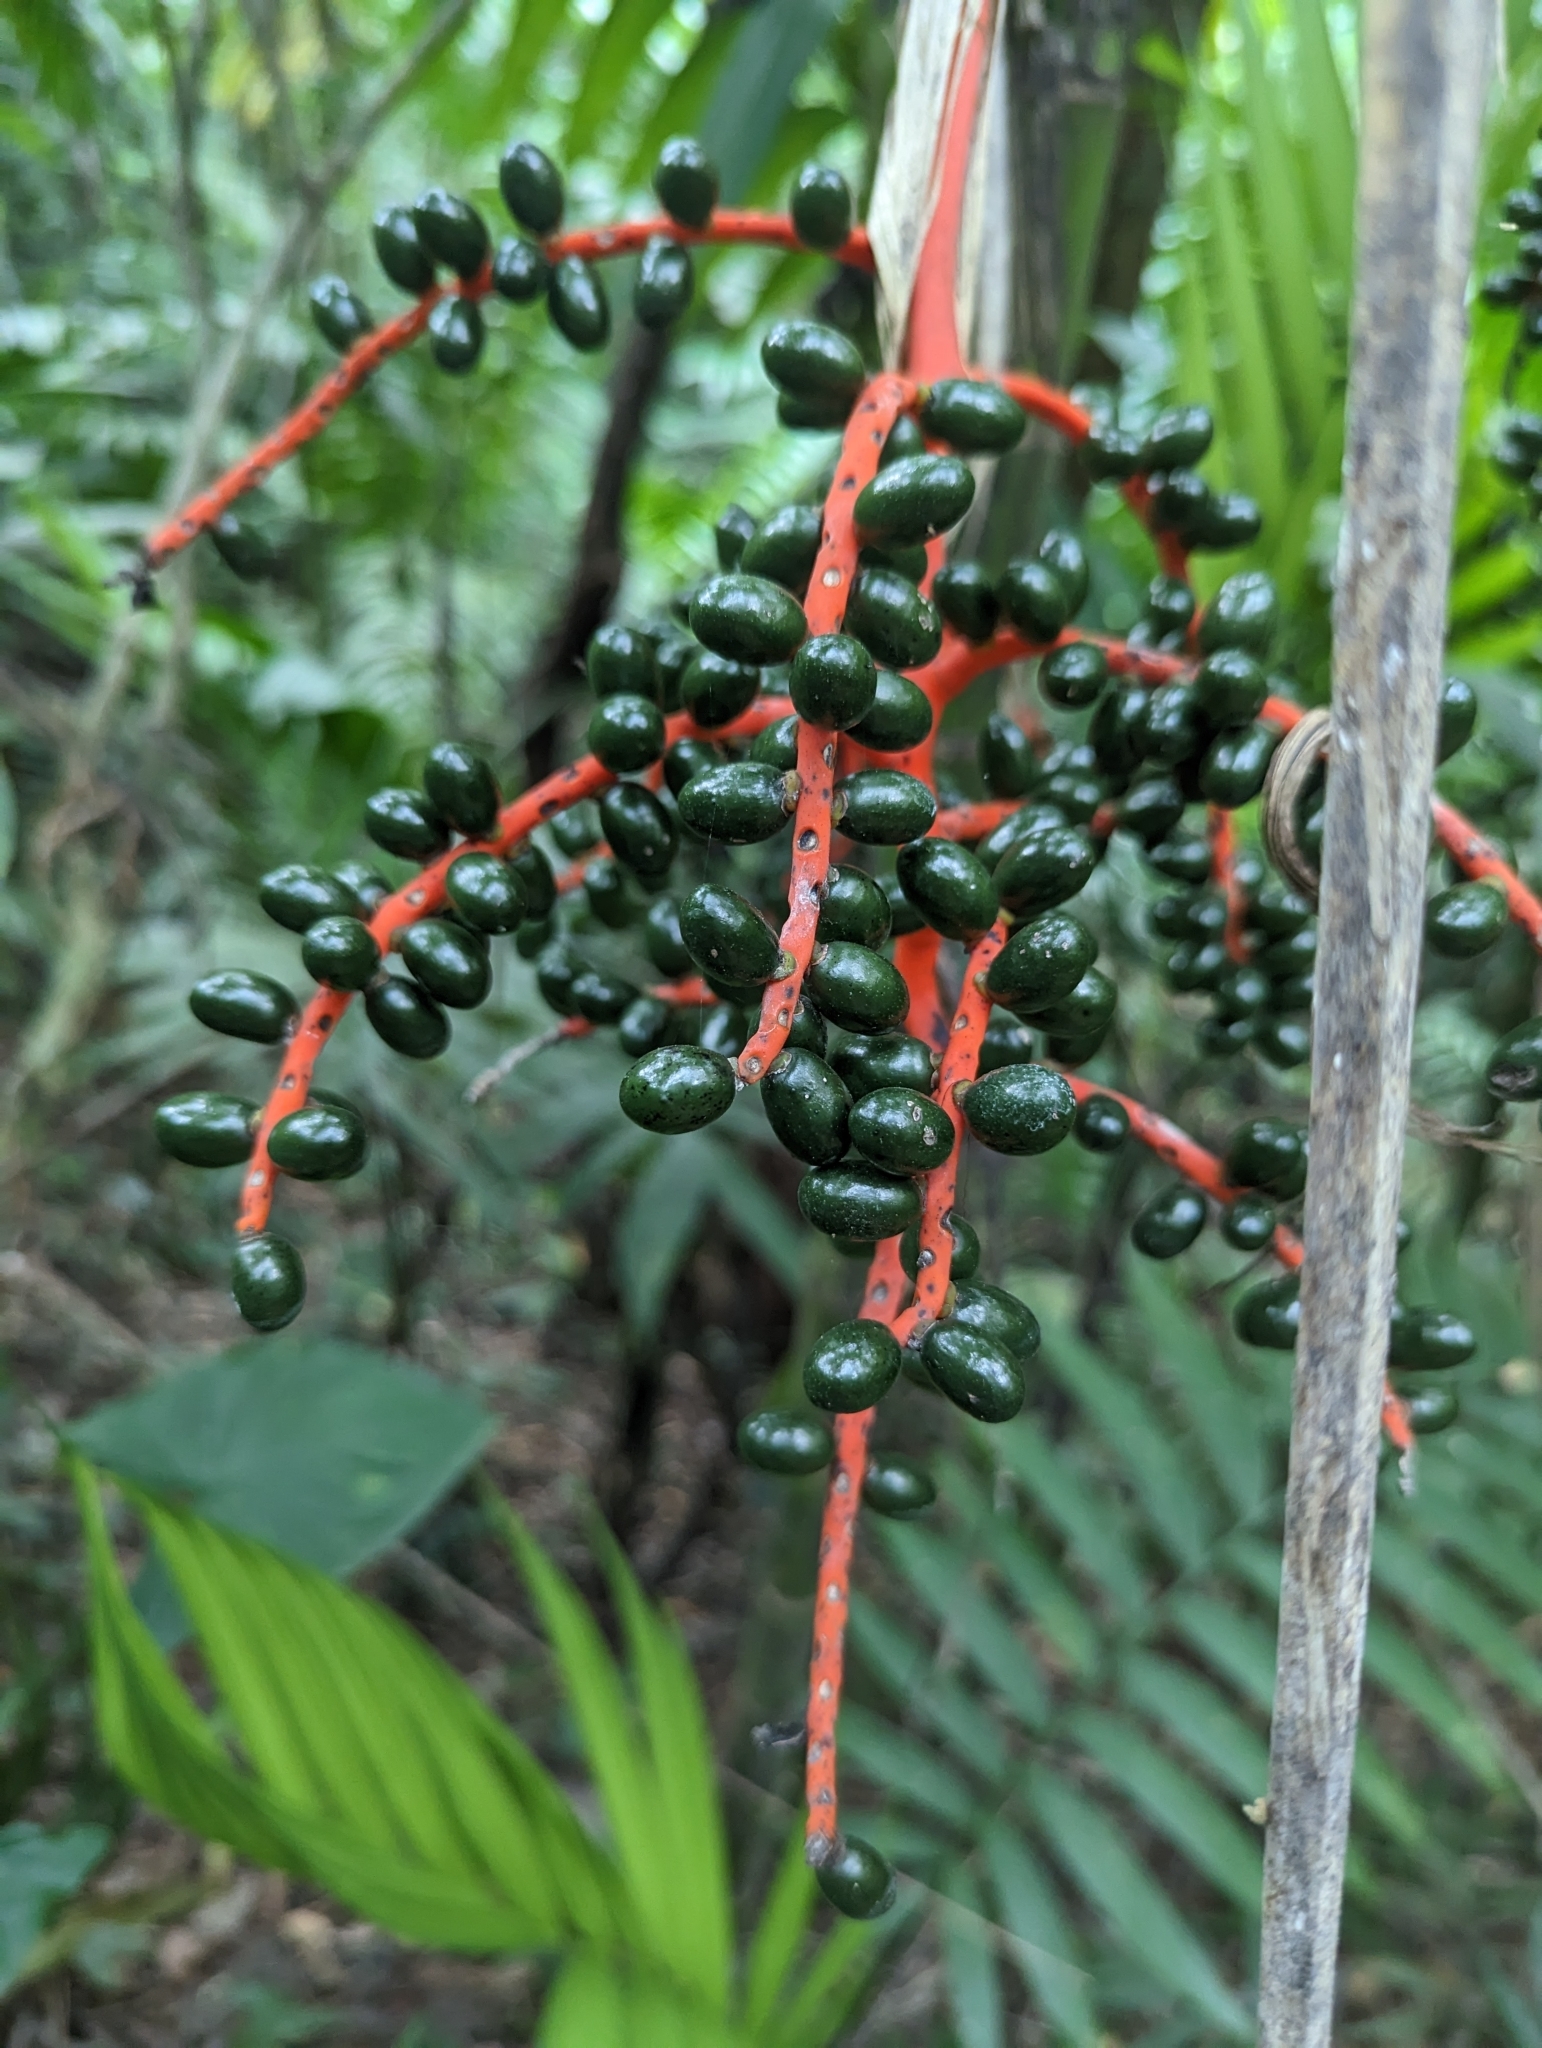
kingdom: Plantae
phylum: Tracheophyta
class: Liliopsida
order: Arecales
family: Arecaceae
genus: Chamaedorea
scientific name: Chamaedorea tepejilote
